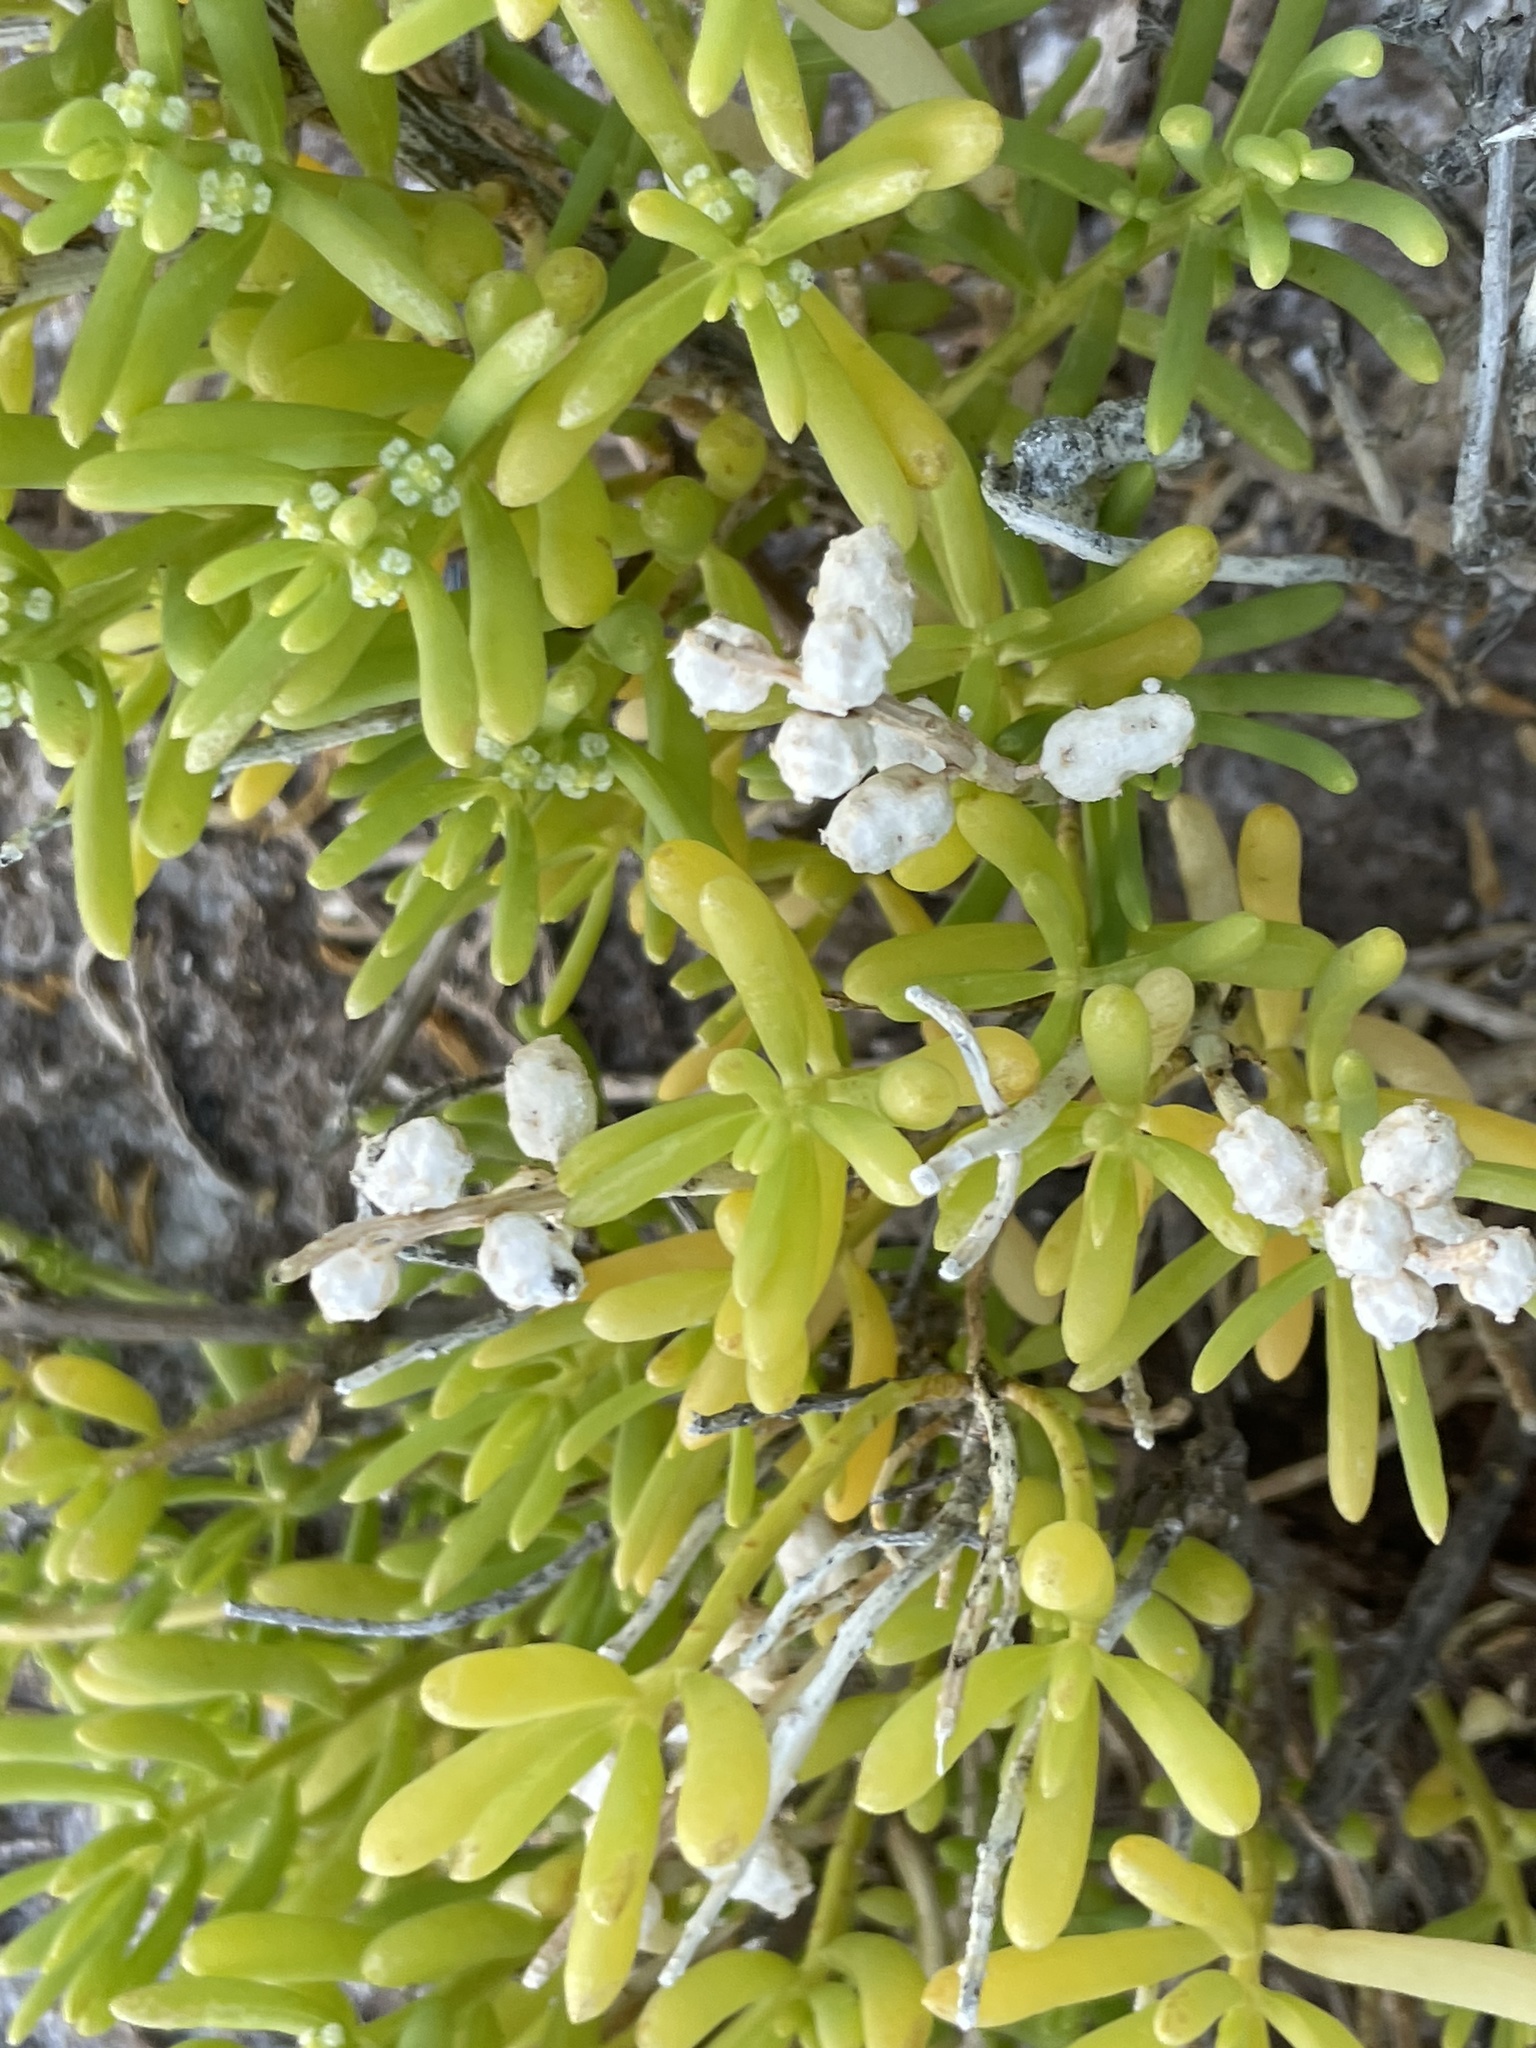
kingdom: Plantae
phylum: Tracheophyta
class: Magnoliopsida
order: Brassicales
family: Bataceae
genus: Batis
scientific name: Batis maritima
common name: Turtleweed
